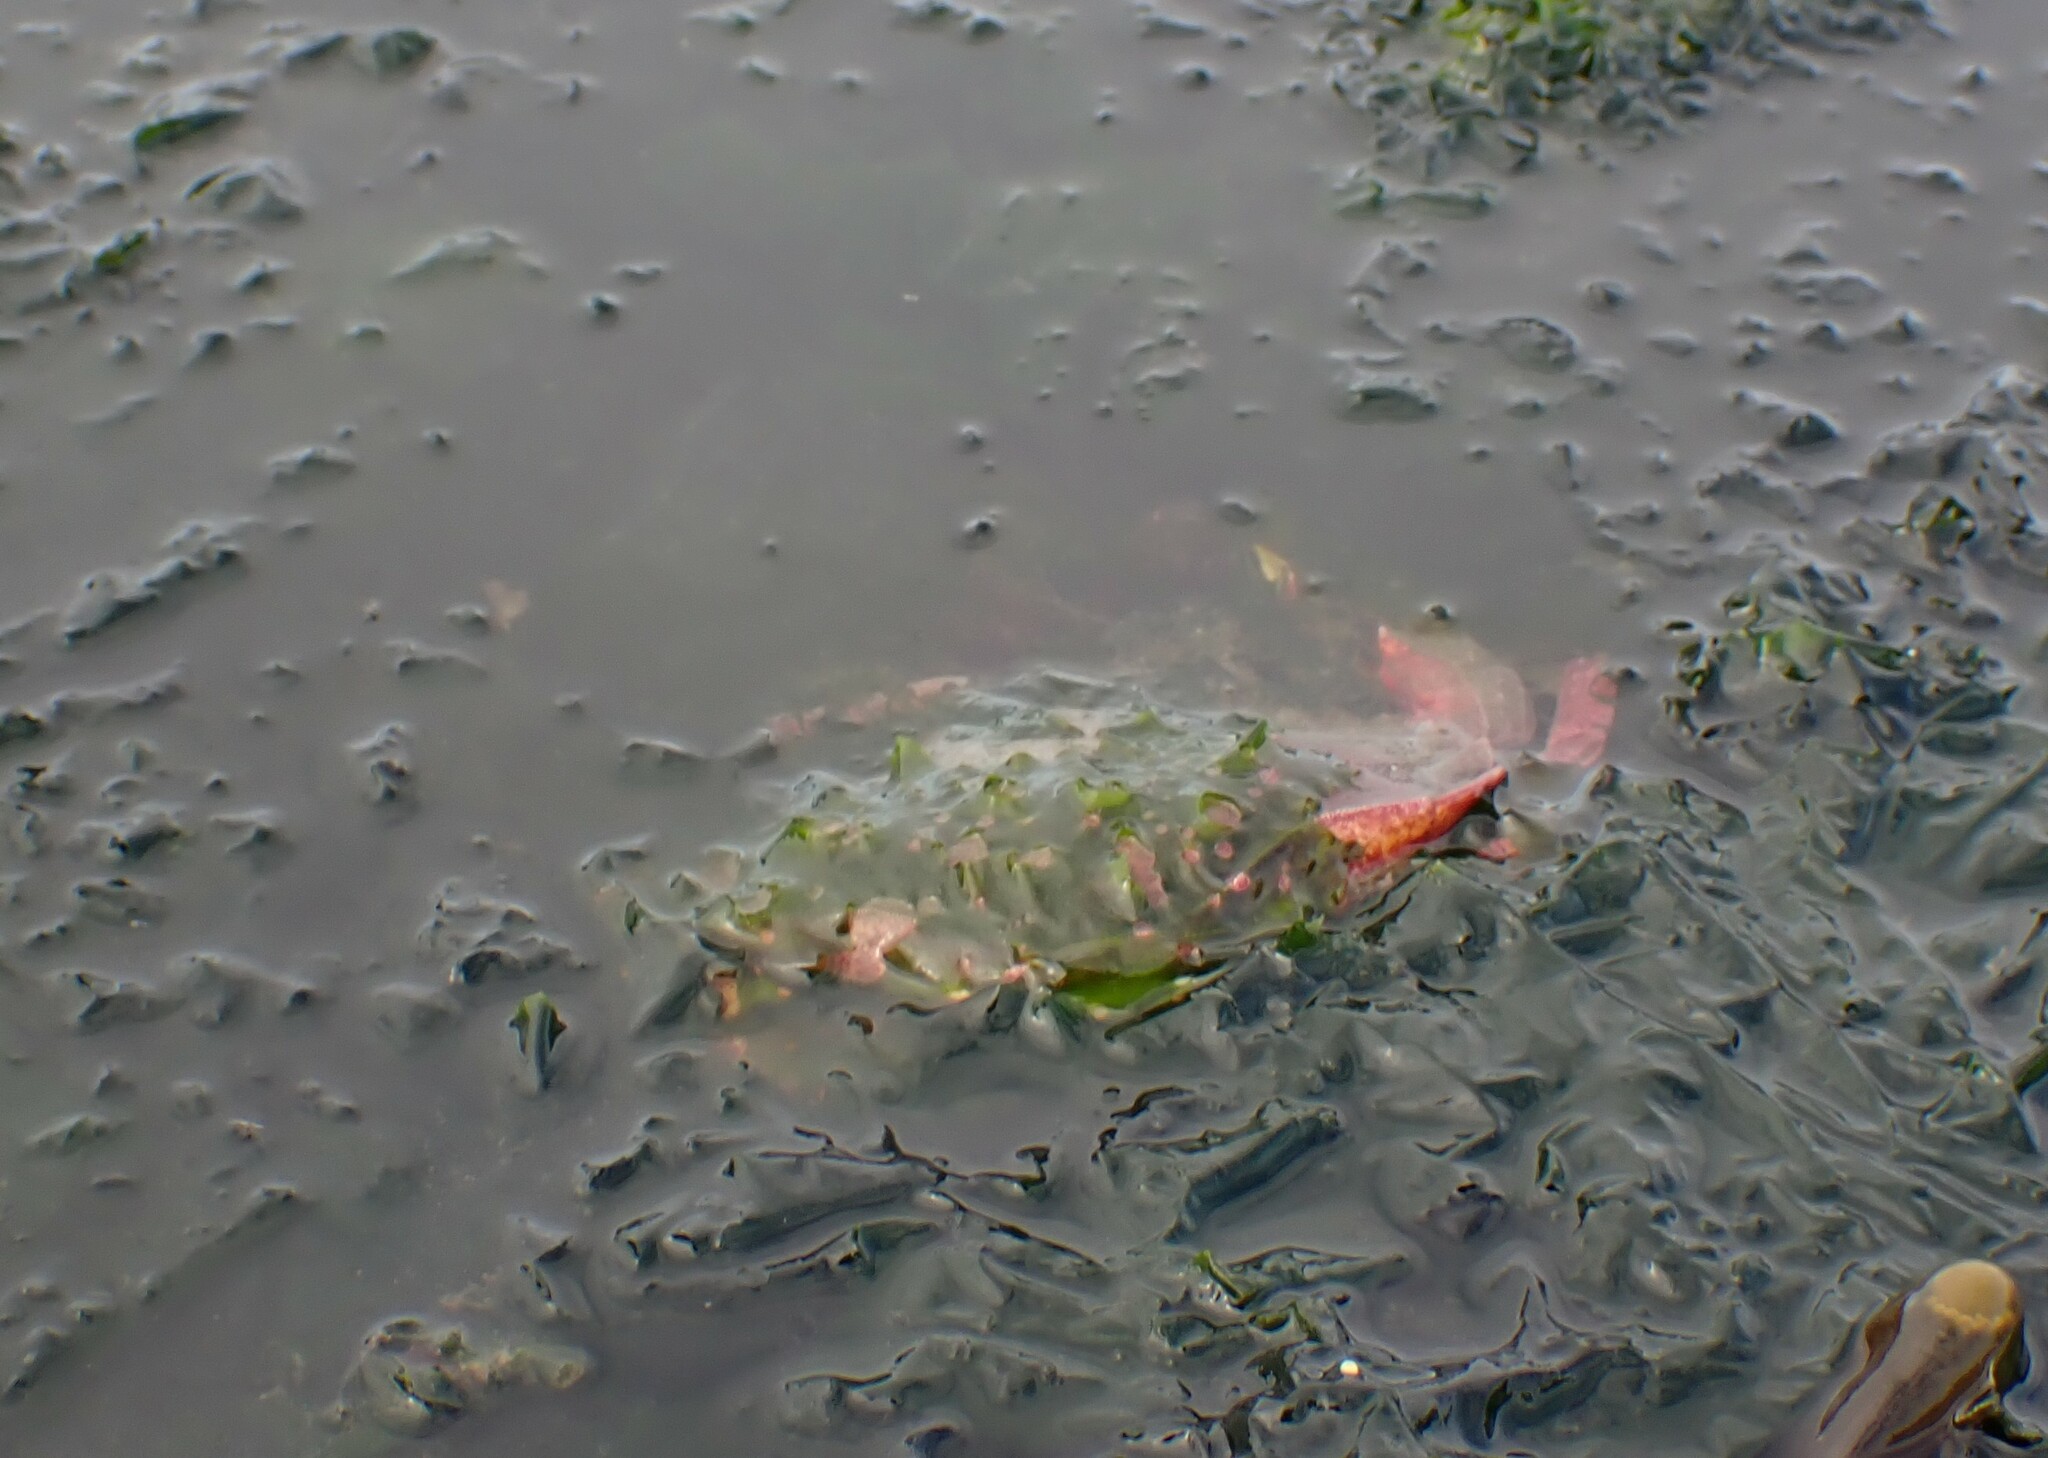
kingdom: Animalia
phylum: Arthropoda
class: Malacostraca
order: Decapoda
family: Cancridae
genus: Cancer
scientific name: Cancer productus
